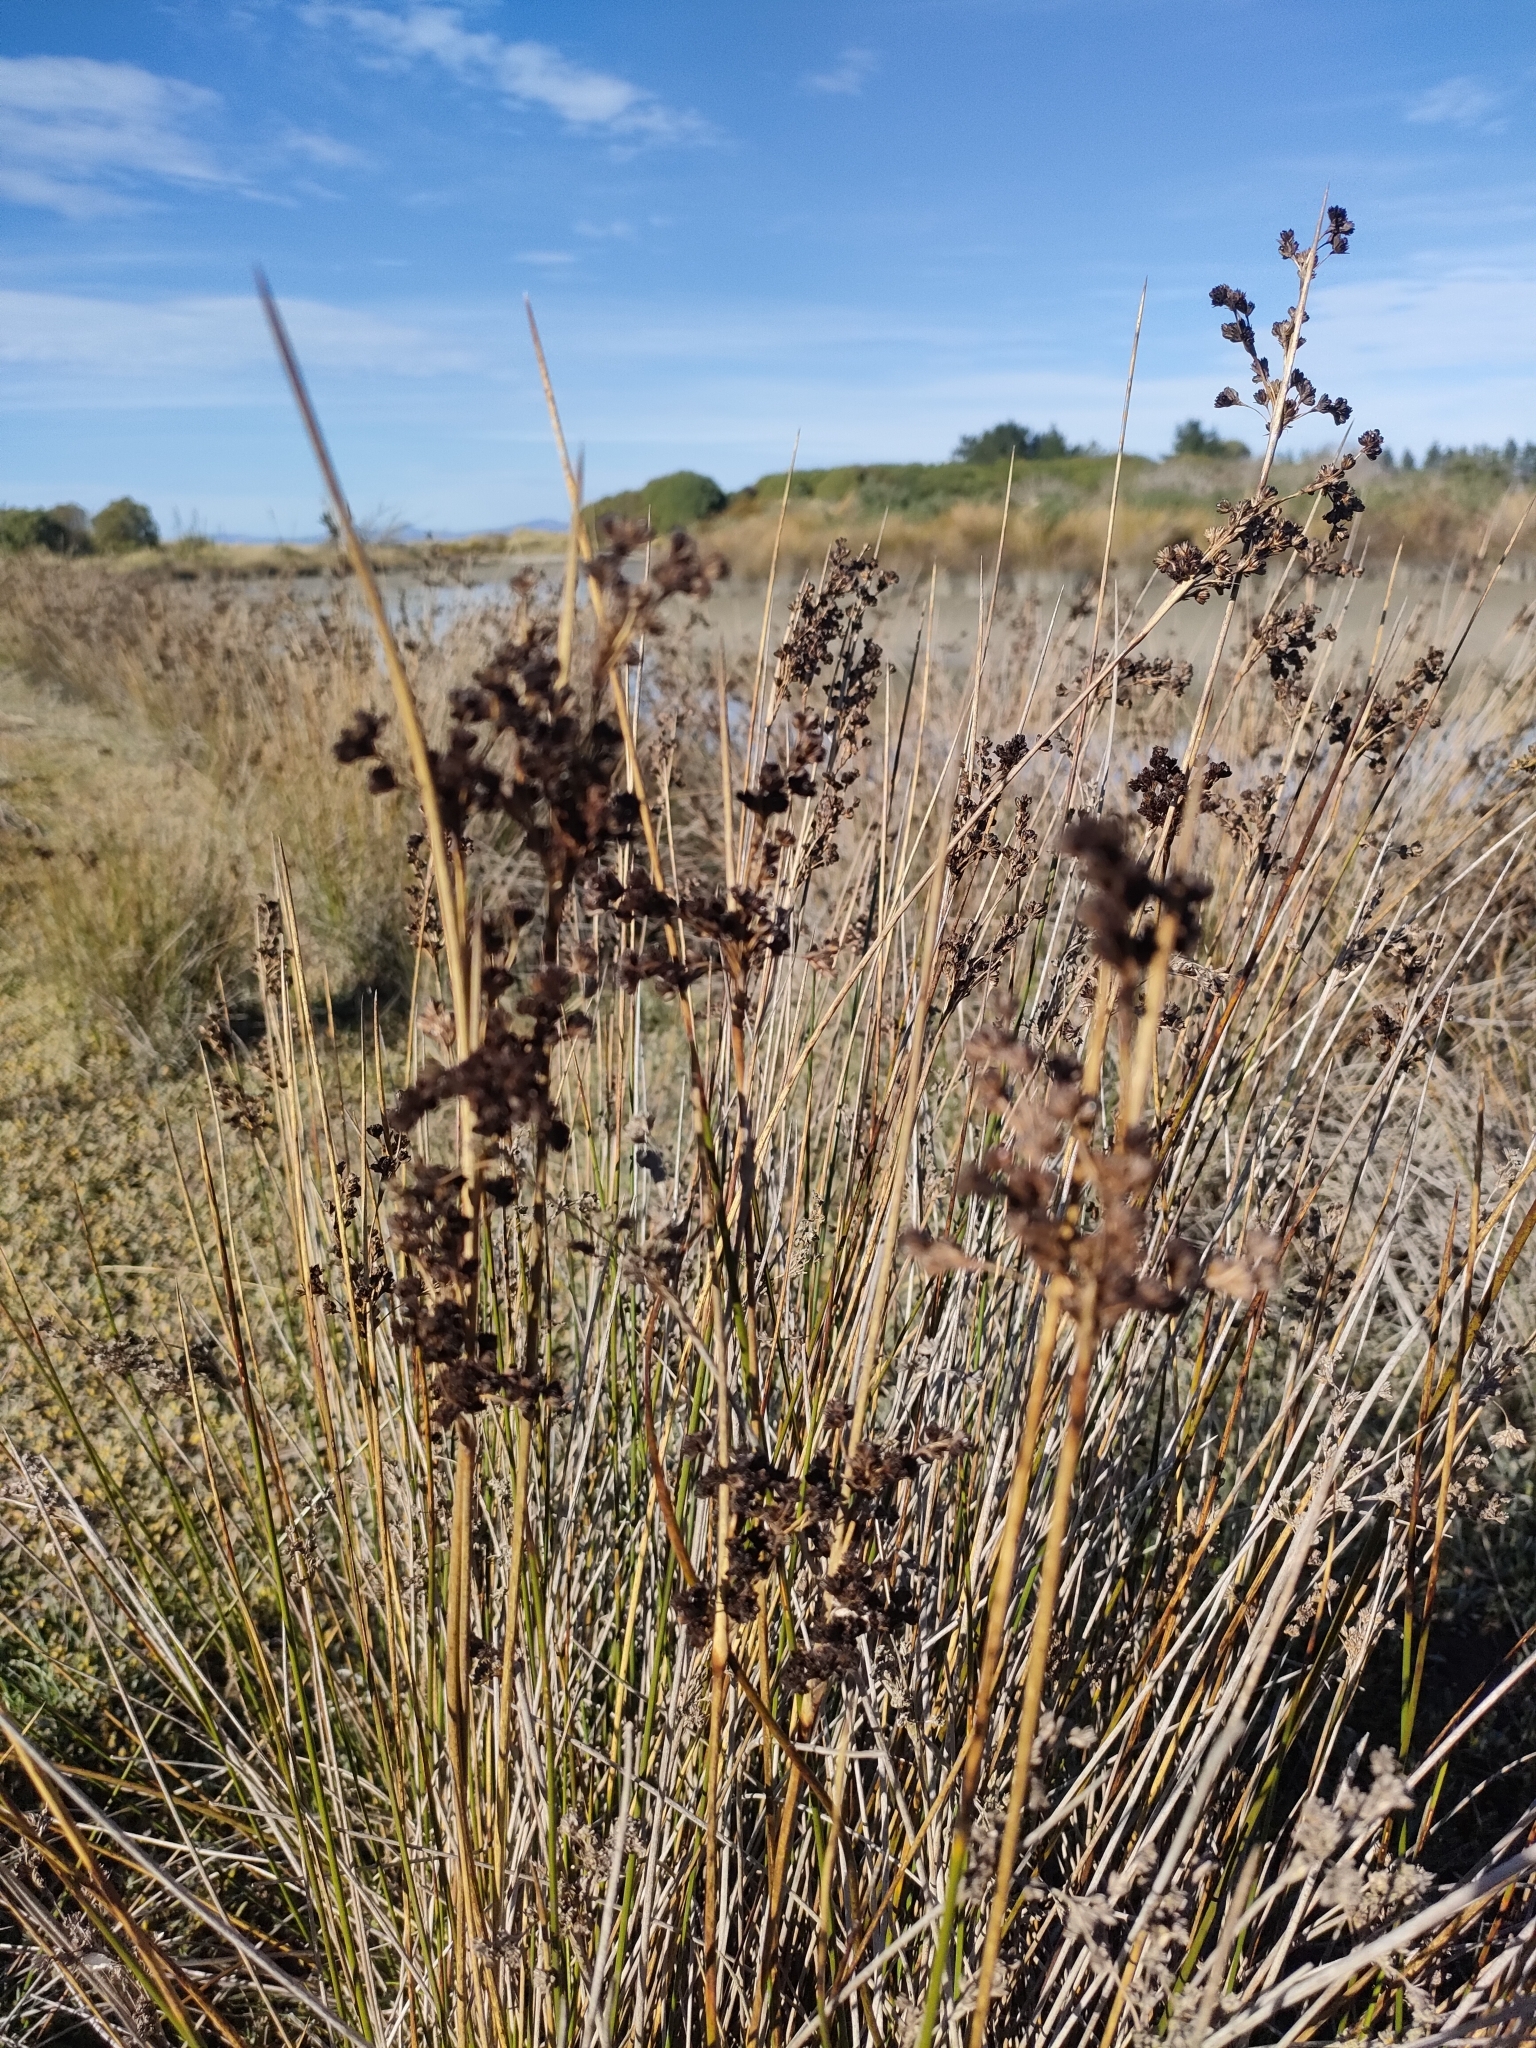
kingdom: Plantae
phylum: Tracheophyta
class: Liliopsida
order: Poales
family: Juncaceae
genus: Juncus
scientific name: Juncus kraussii
